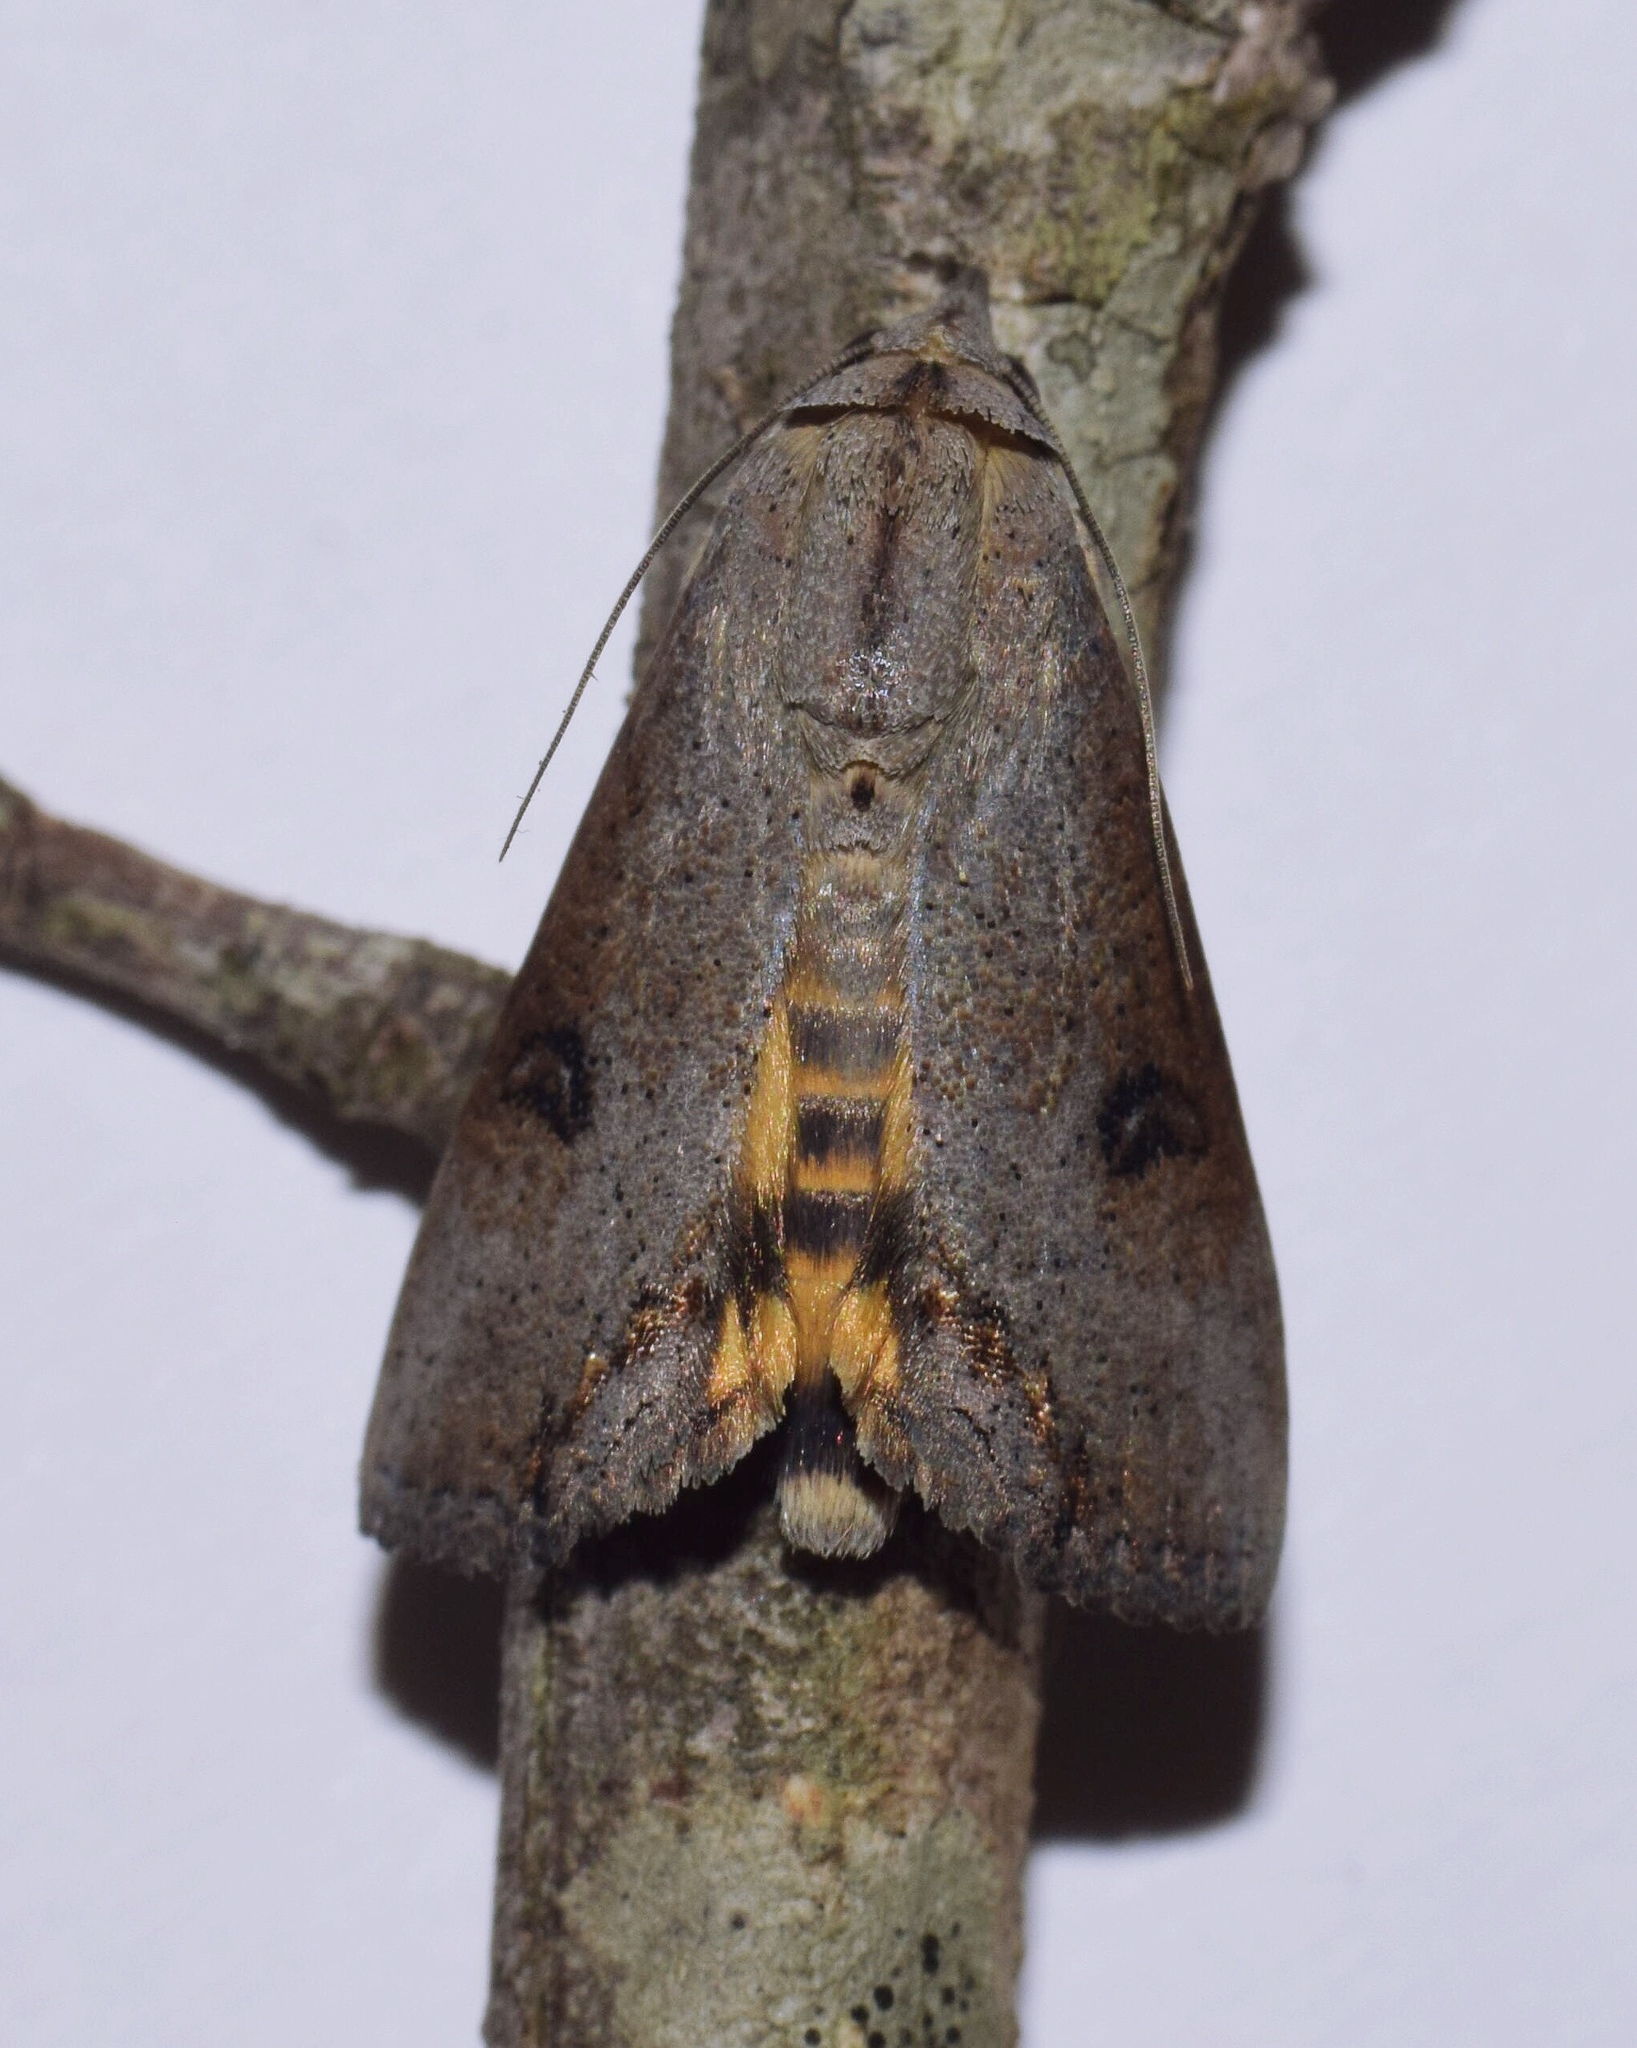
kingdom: Animalia
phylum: Arthropoda
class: Insecta
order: Lepidoptera
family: Erebidae
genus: Hypocala
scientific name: Hypocala deflorata
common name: Moth
